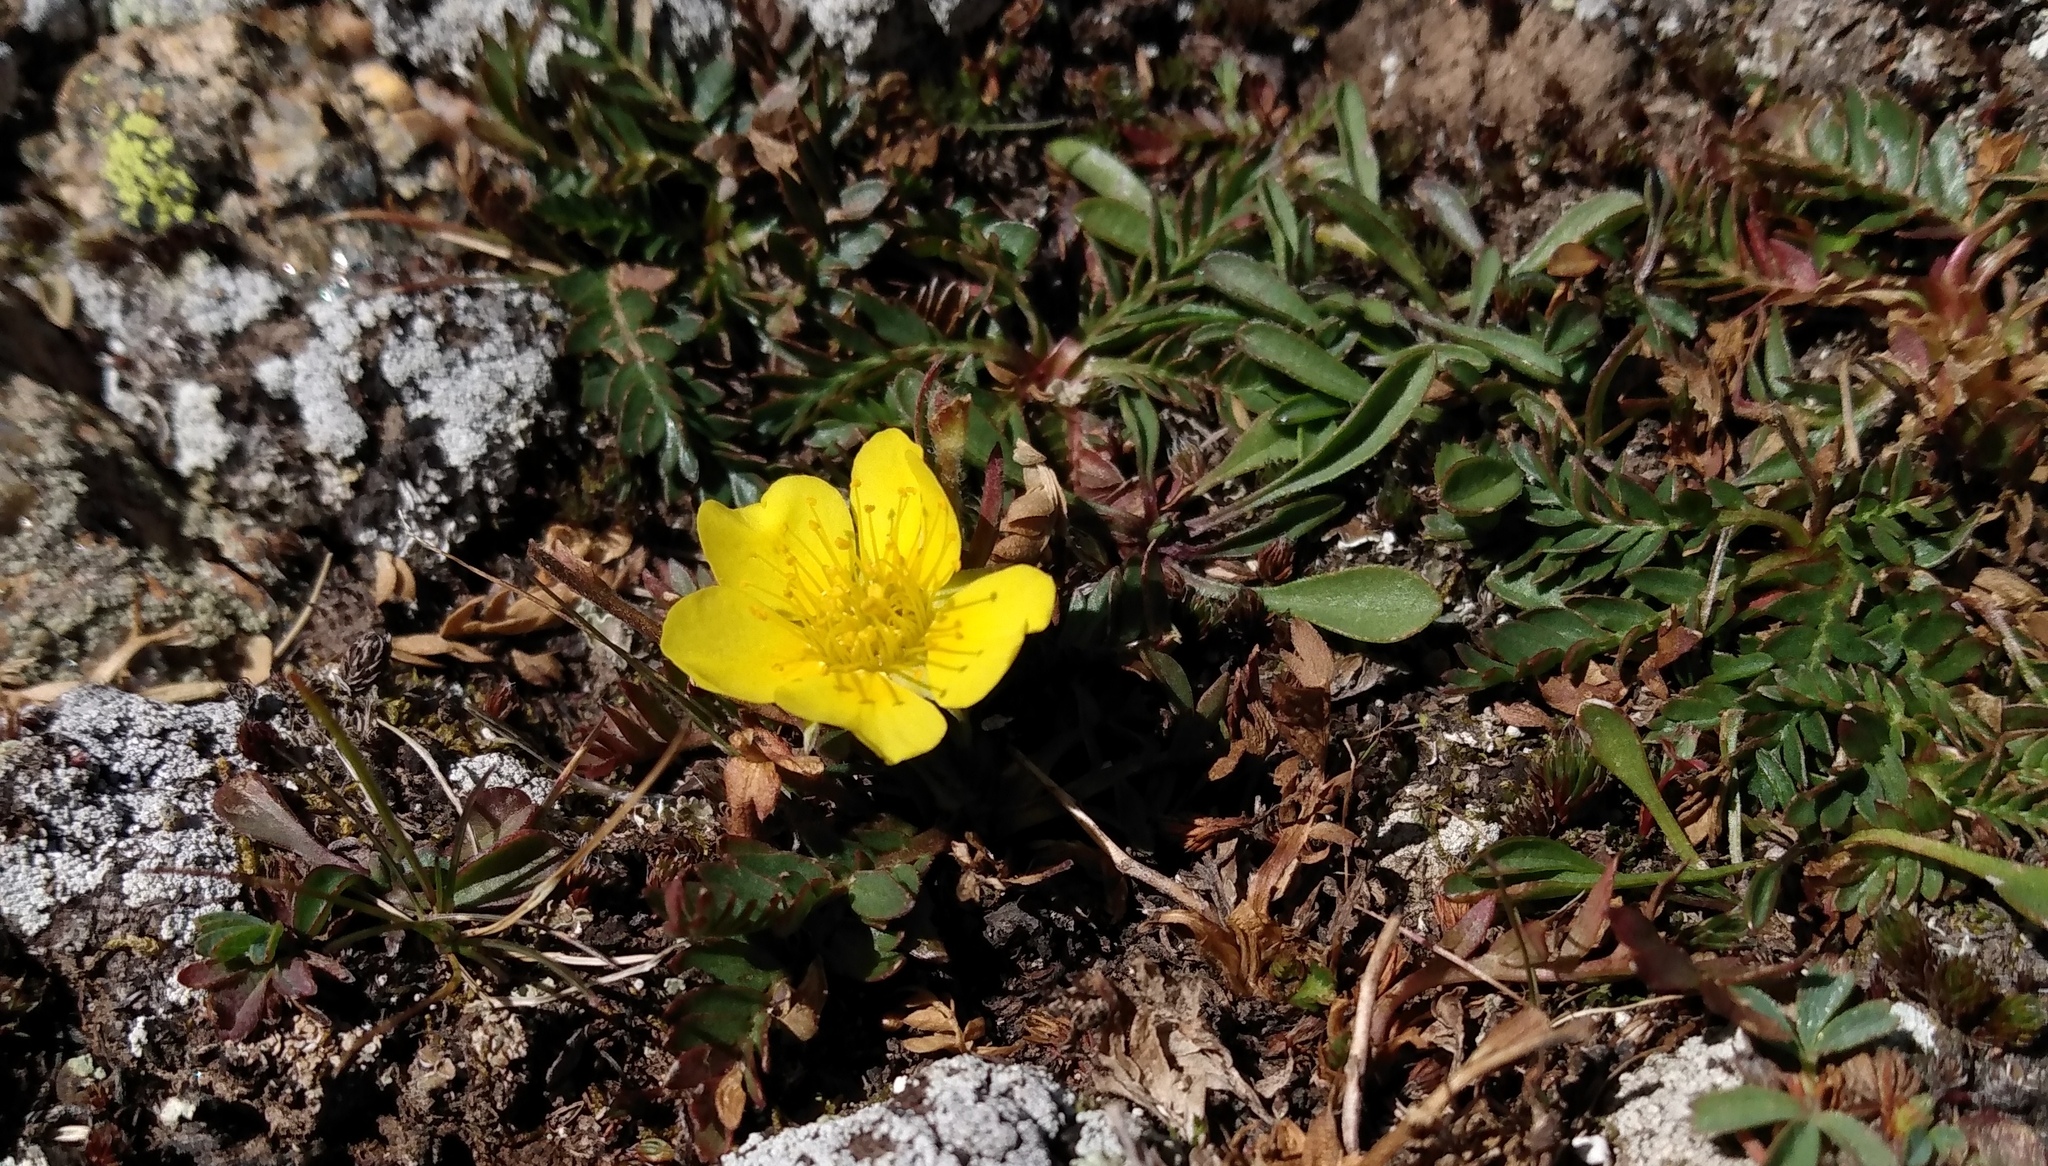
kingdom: Plantae
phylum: Tracheophyta
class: Magnoliopsida
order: Rosales
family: Rosaceae
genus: Geum
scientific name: Geum rossii
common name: Alpine avens
